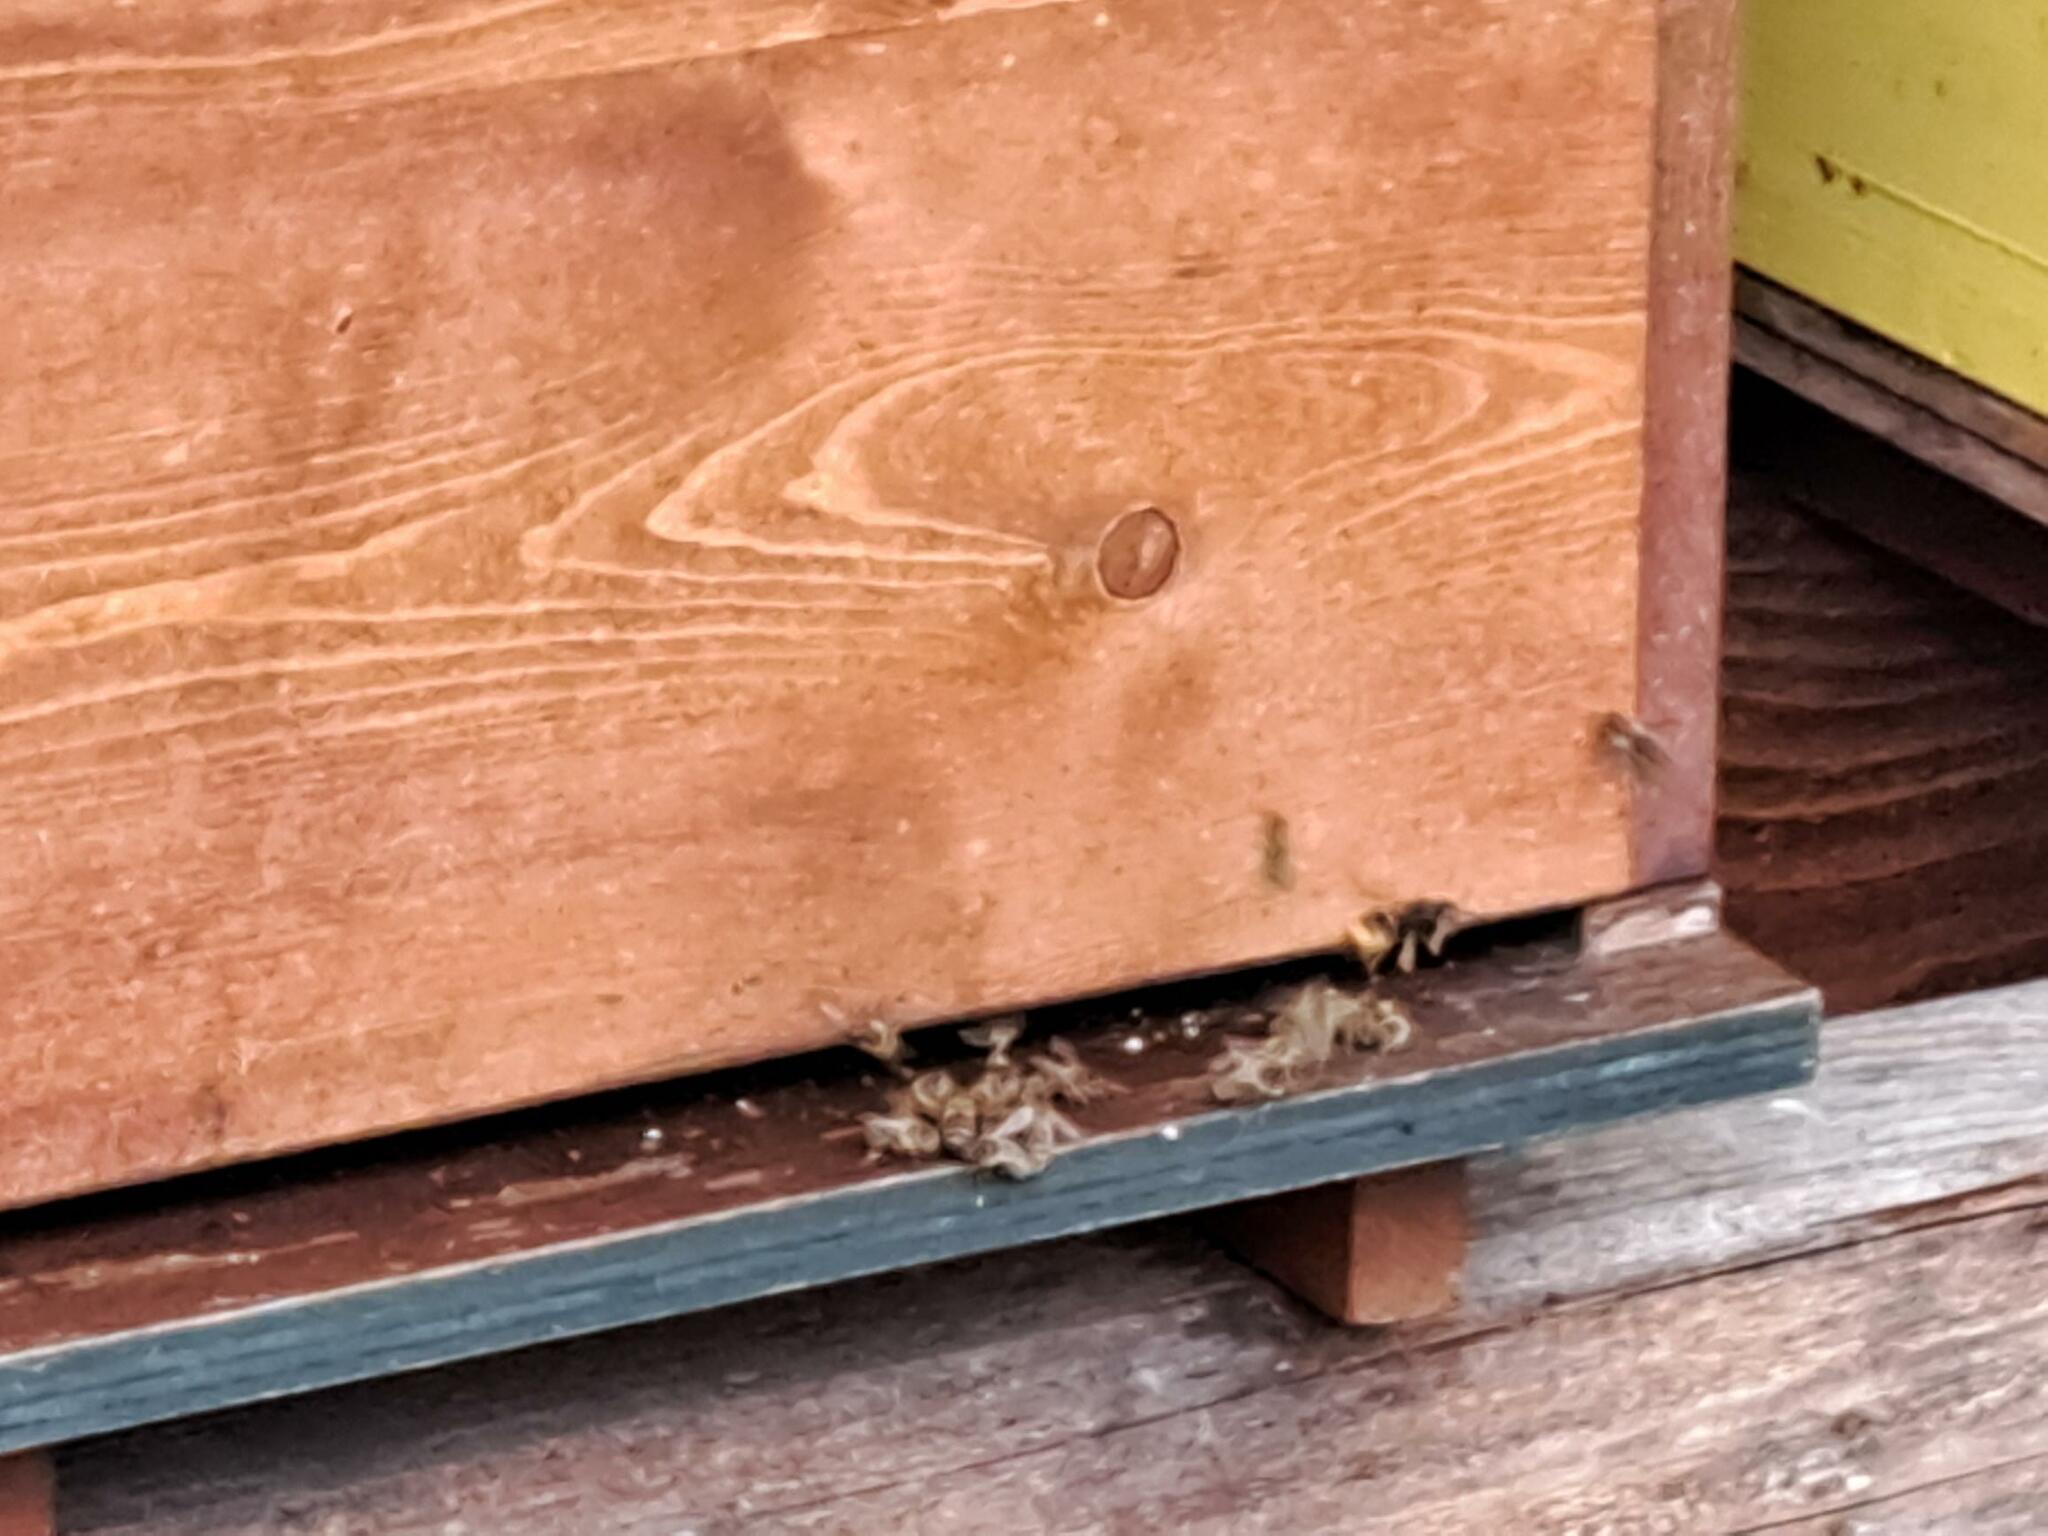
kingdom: Animalia
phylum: Arthropoda
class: Insecta
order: Hymenoptera
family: Vespidae
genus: Vespa
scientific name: Vespa velutina
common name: Asian hornet
